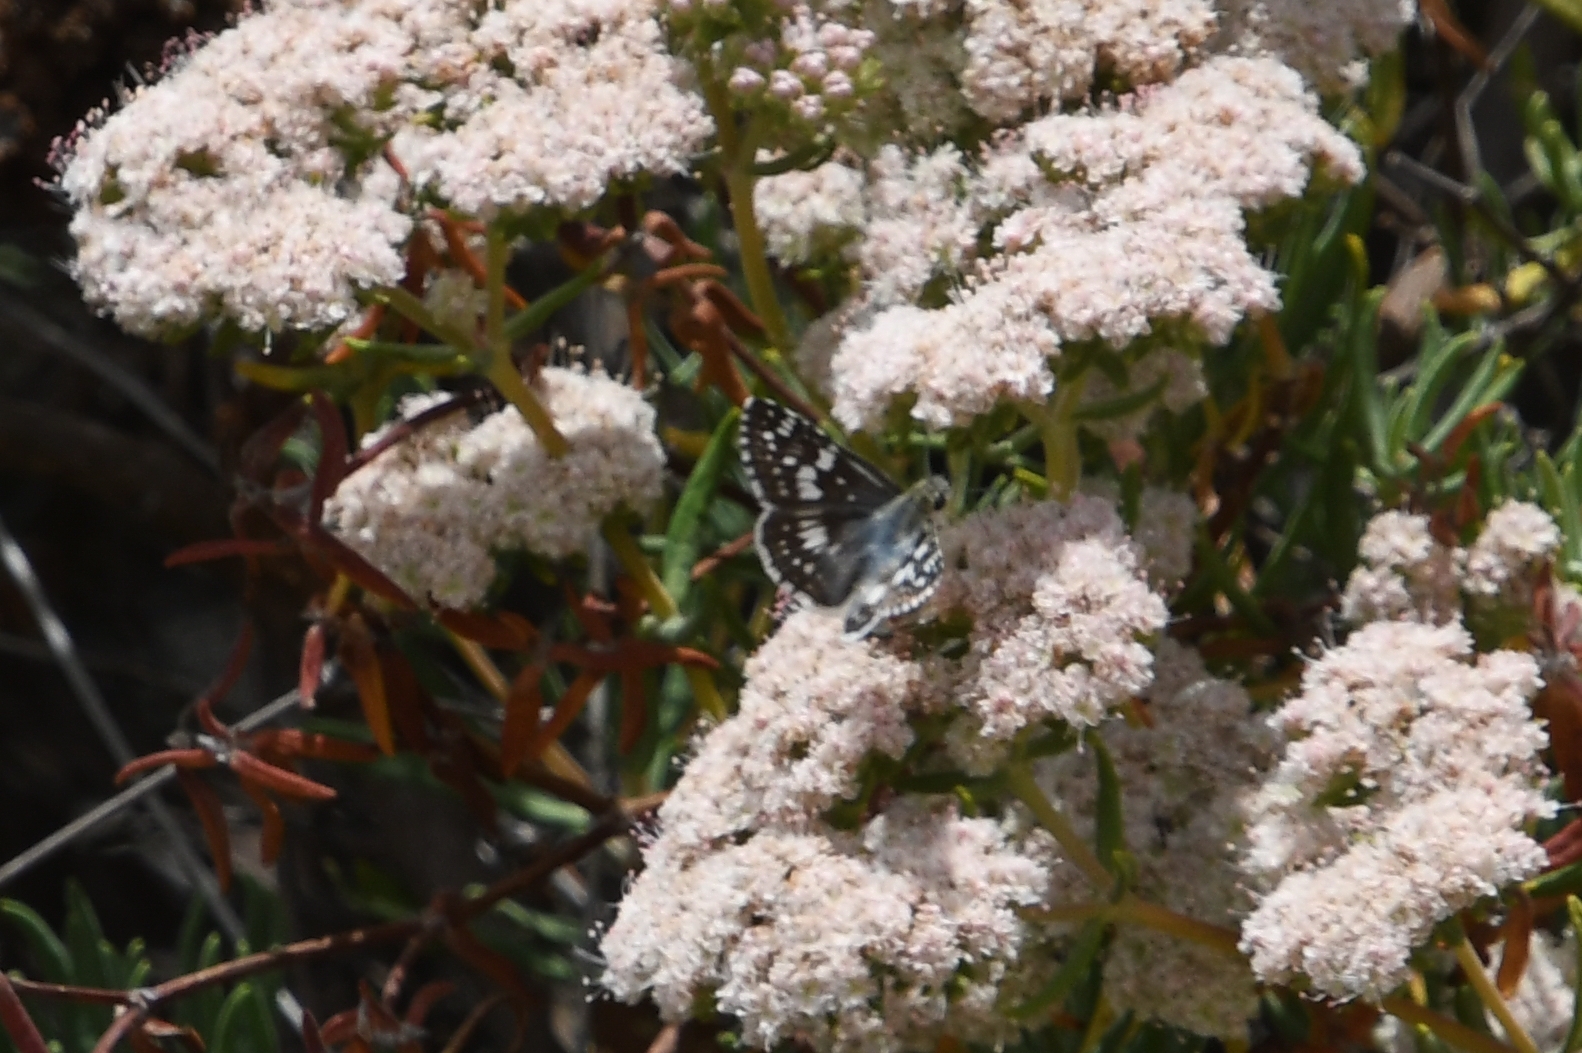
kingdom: Animalia
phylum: Arthropoda
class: Insecta
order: Lepidoptera
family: Hesperiidae
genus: Burnsius
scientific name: Burnsius albezens
